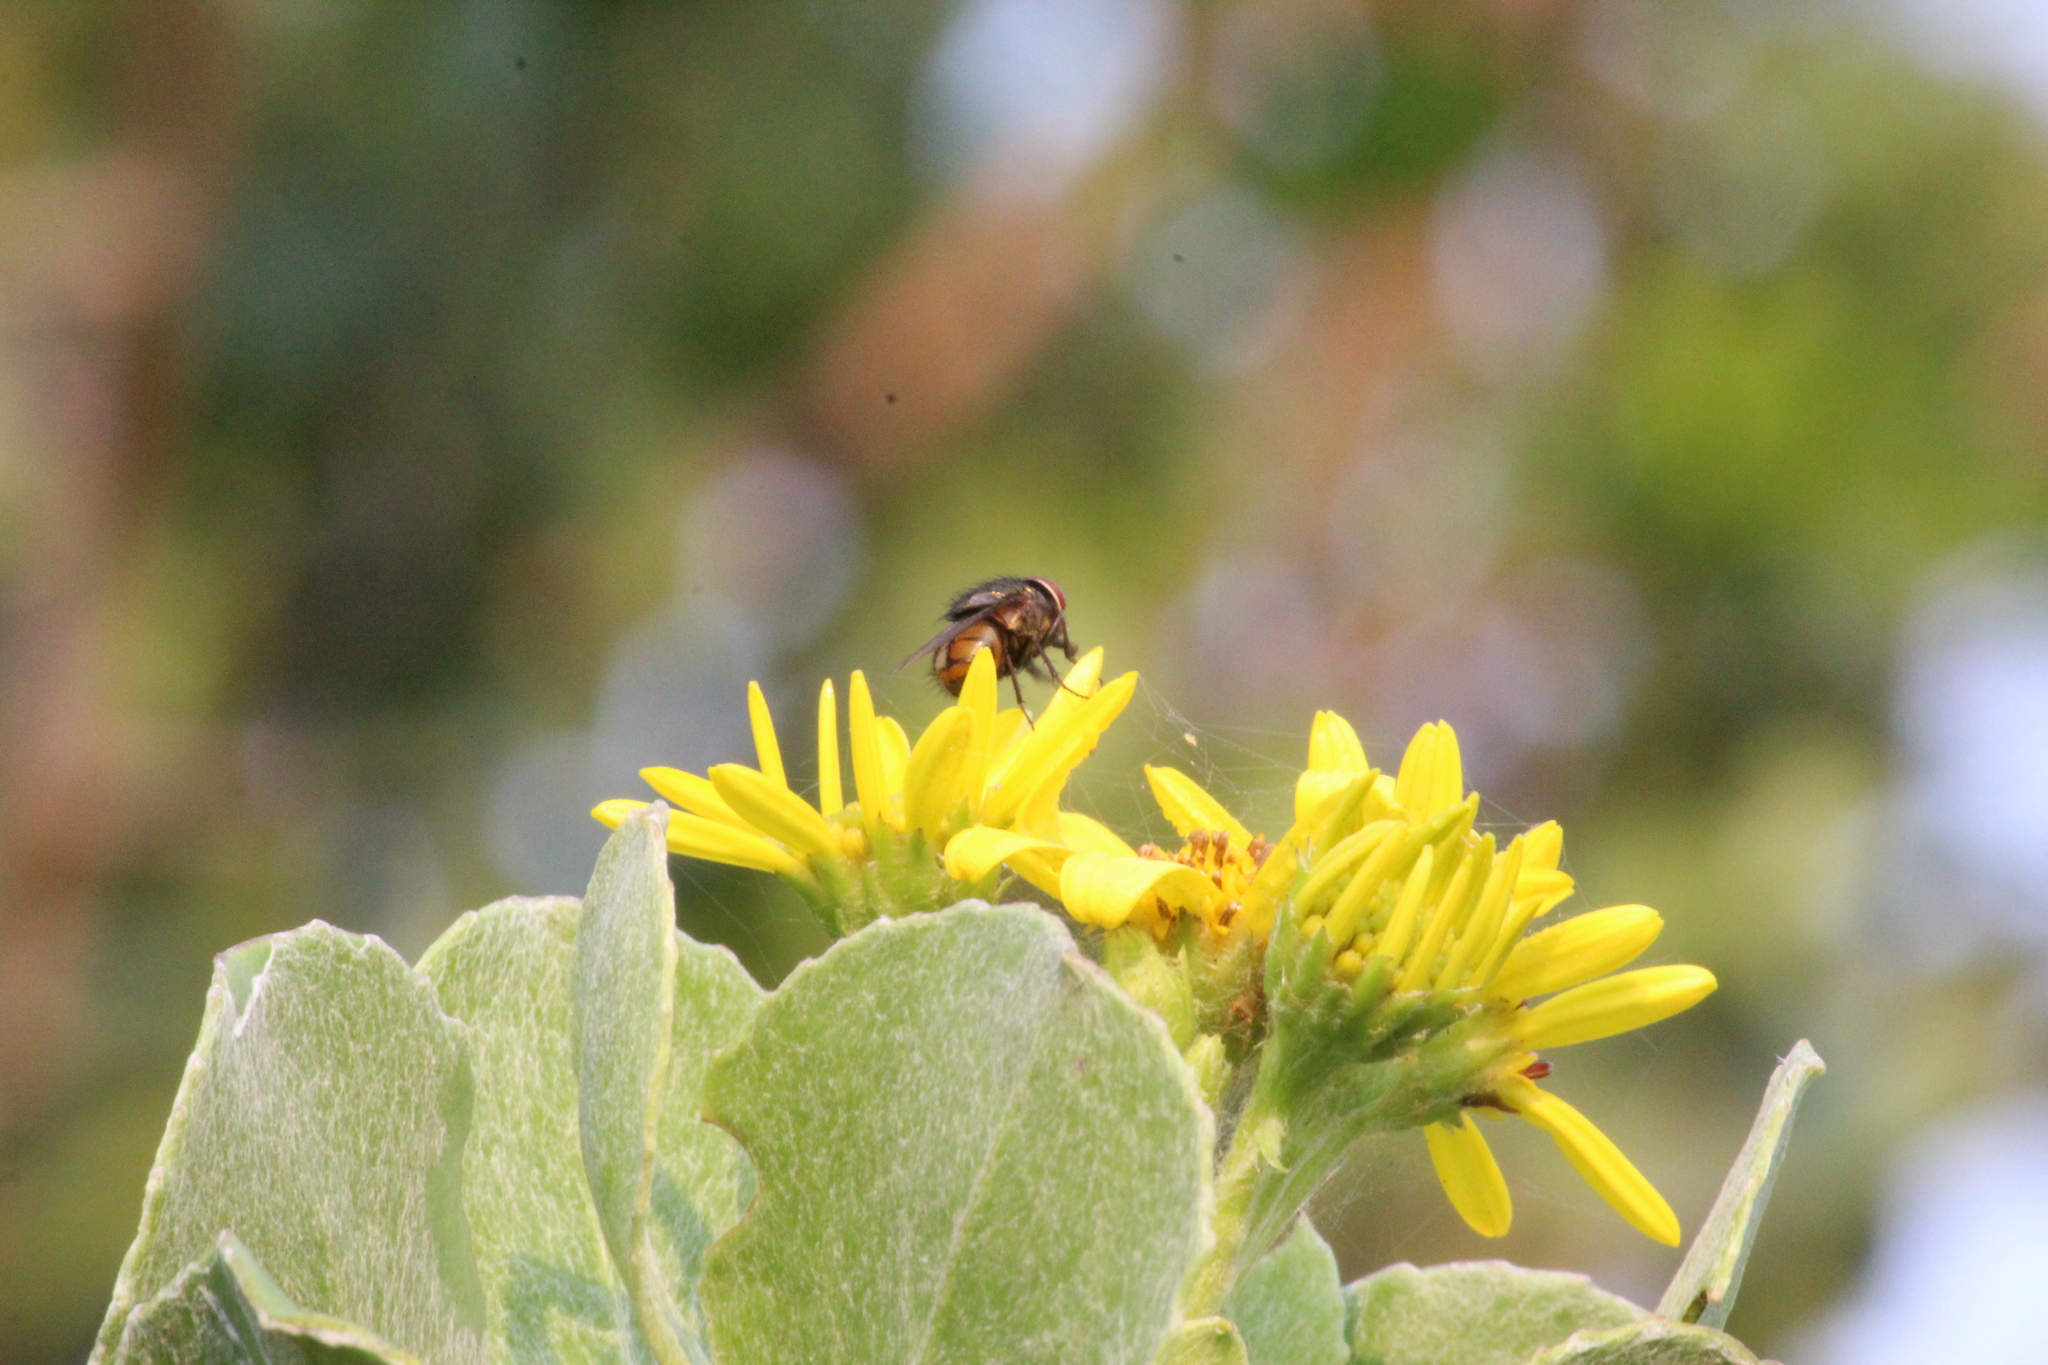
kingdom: Plantae
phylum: Tracheophyta
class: Magnoliopsida
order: Asterales
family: Asteraceae
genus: Osteospermum
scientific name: Osteospermum moniliferum
